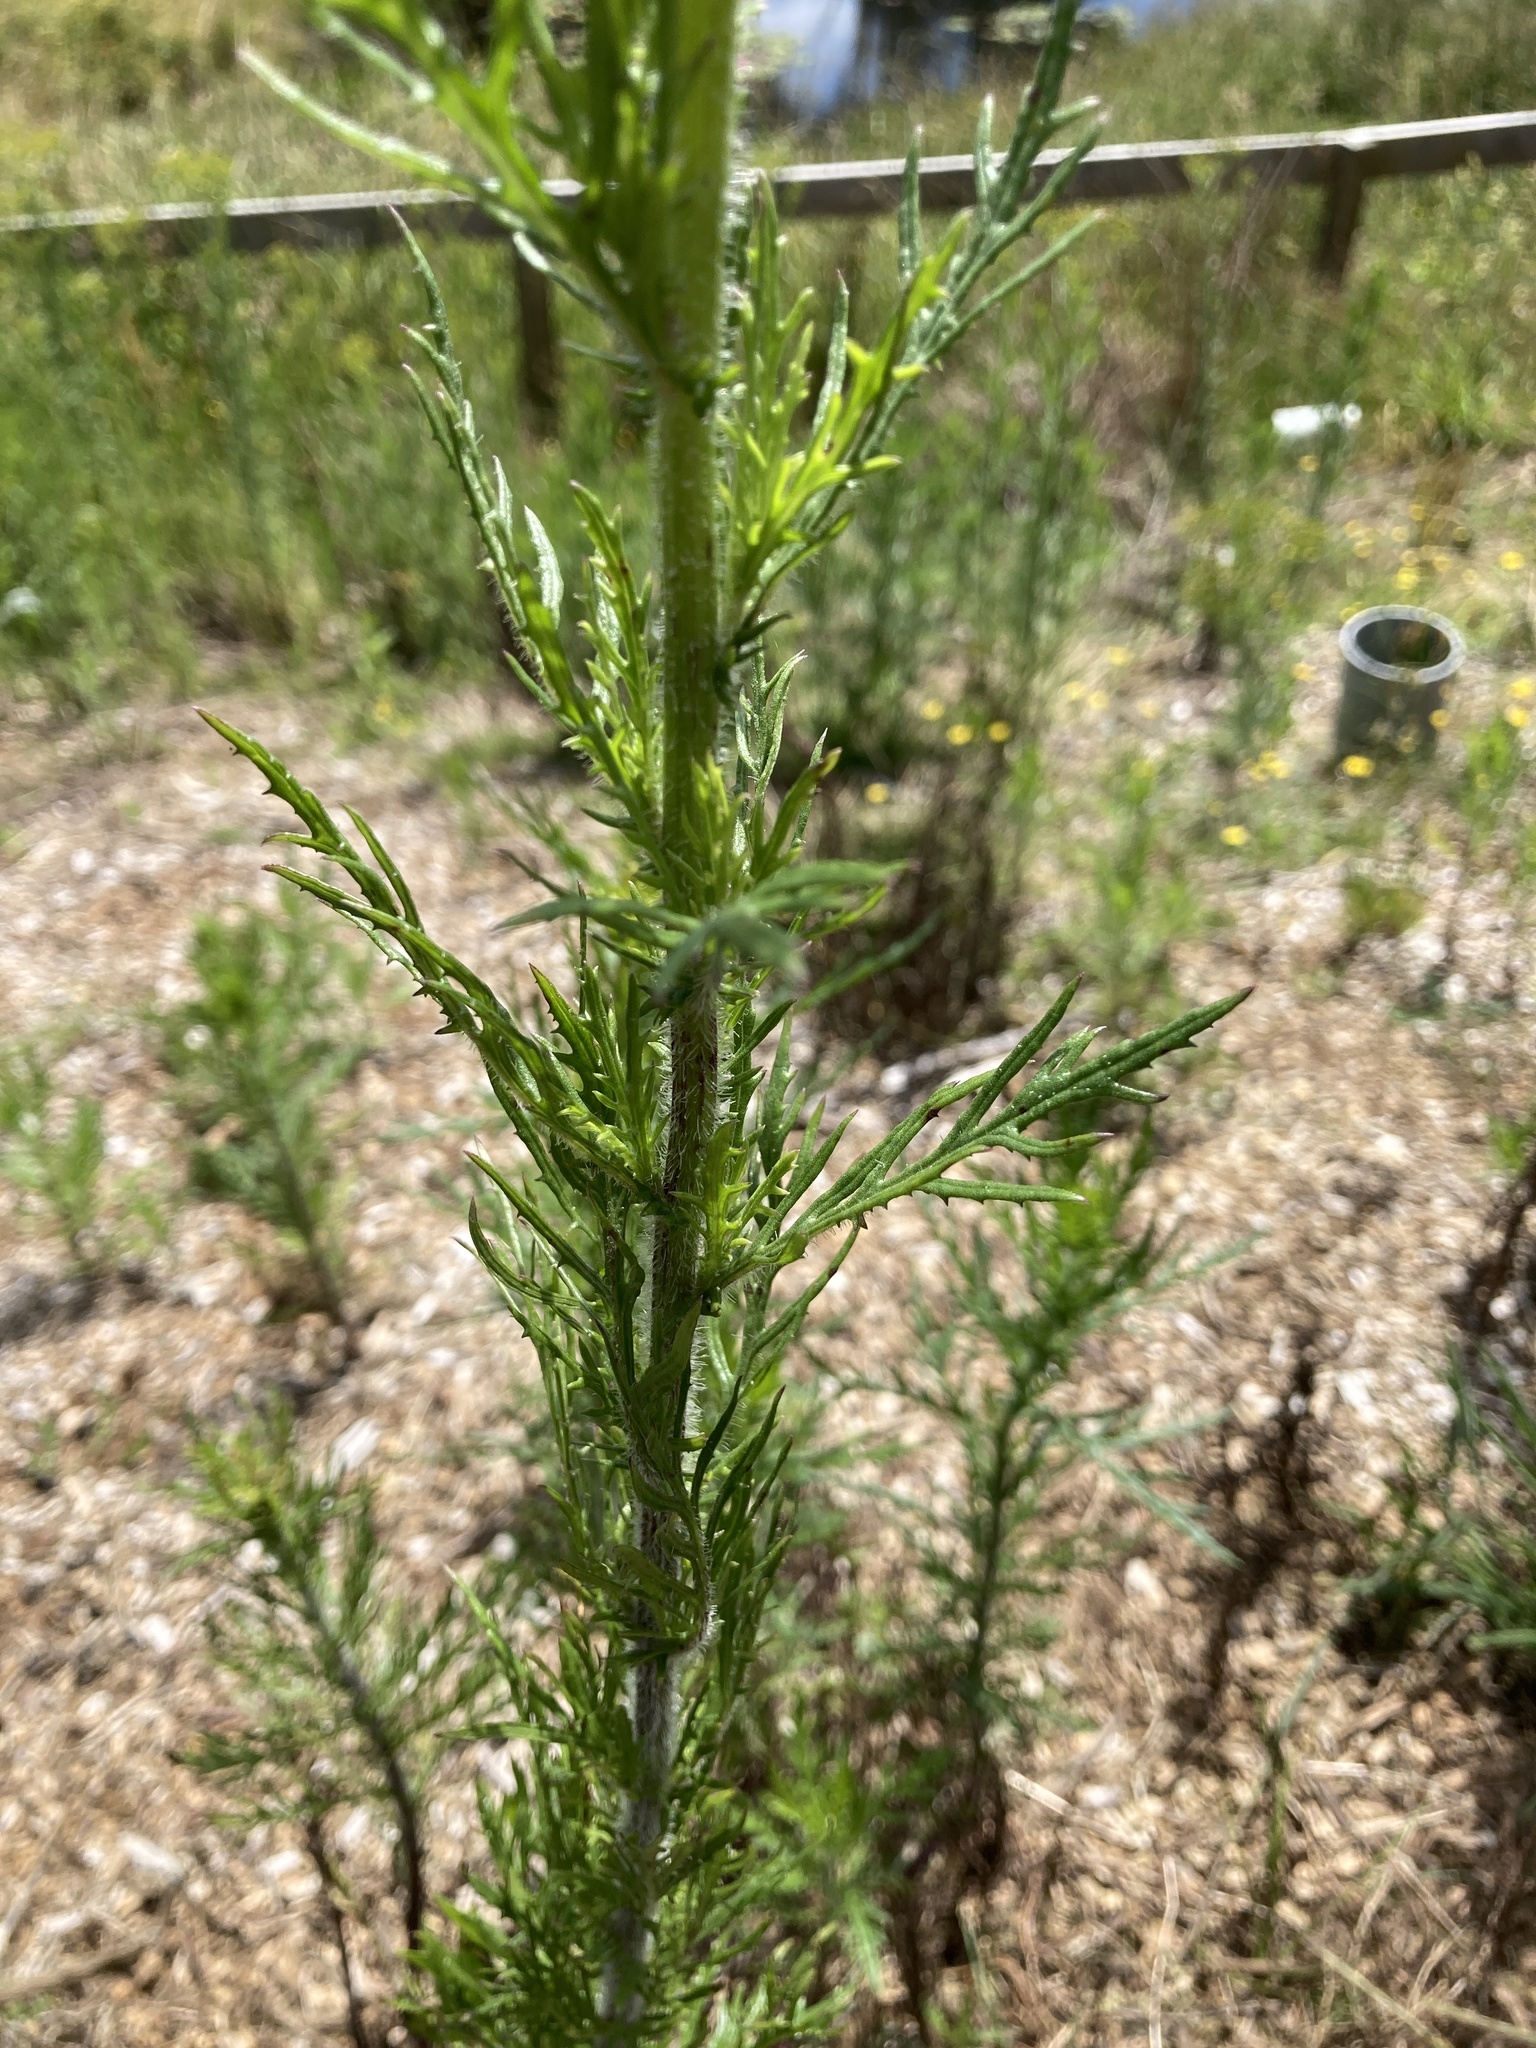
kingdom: Plantae
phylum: Tracheophyta
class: Magnoliopsida
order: Asterales
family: Asteraceae
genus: Senecio
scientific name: Senecio esleri
